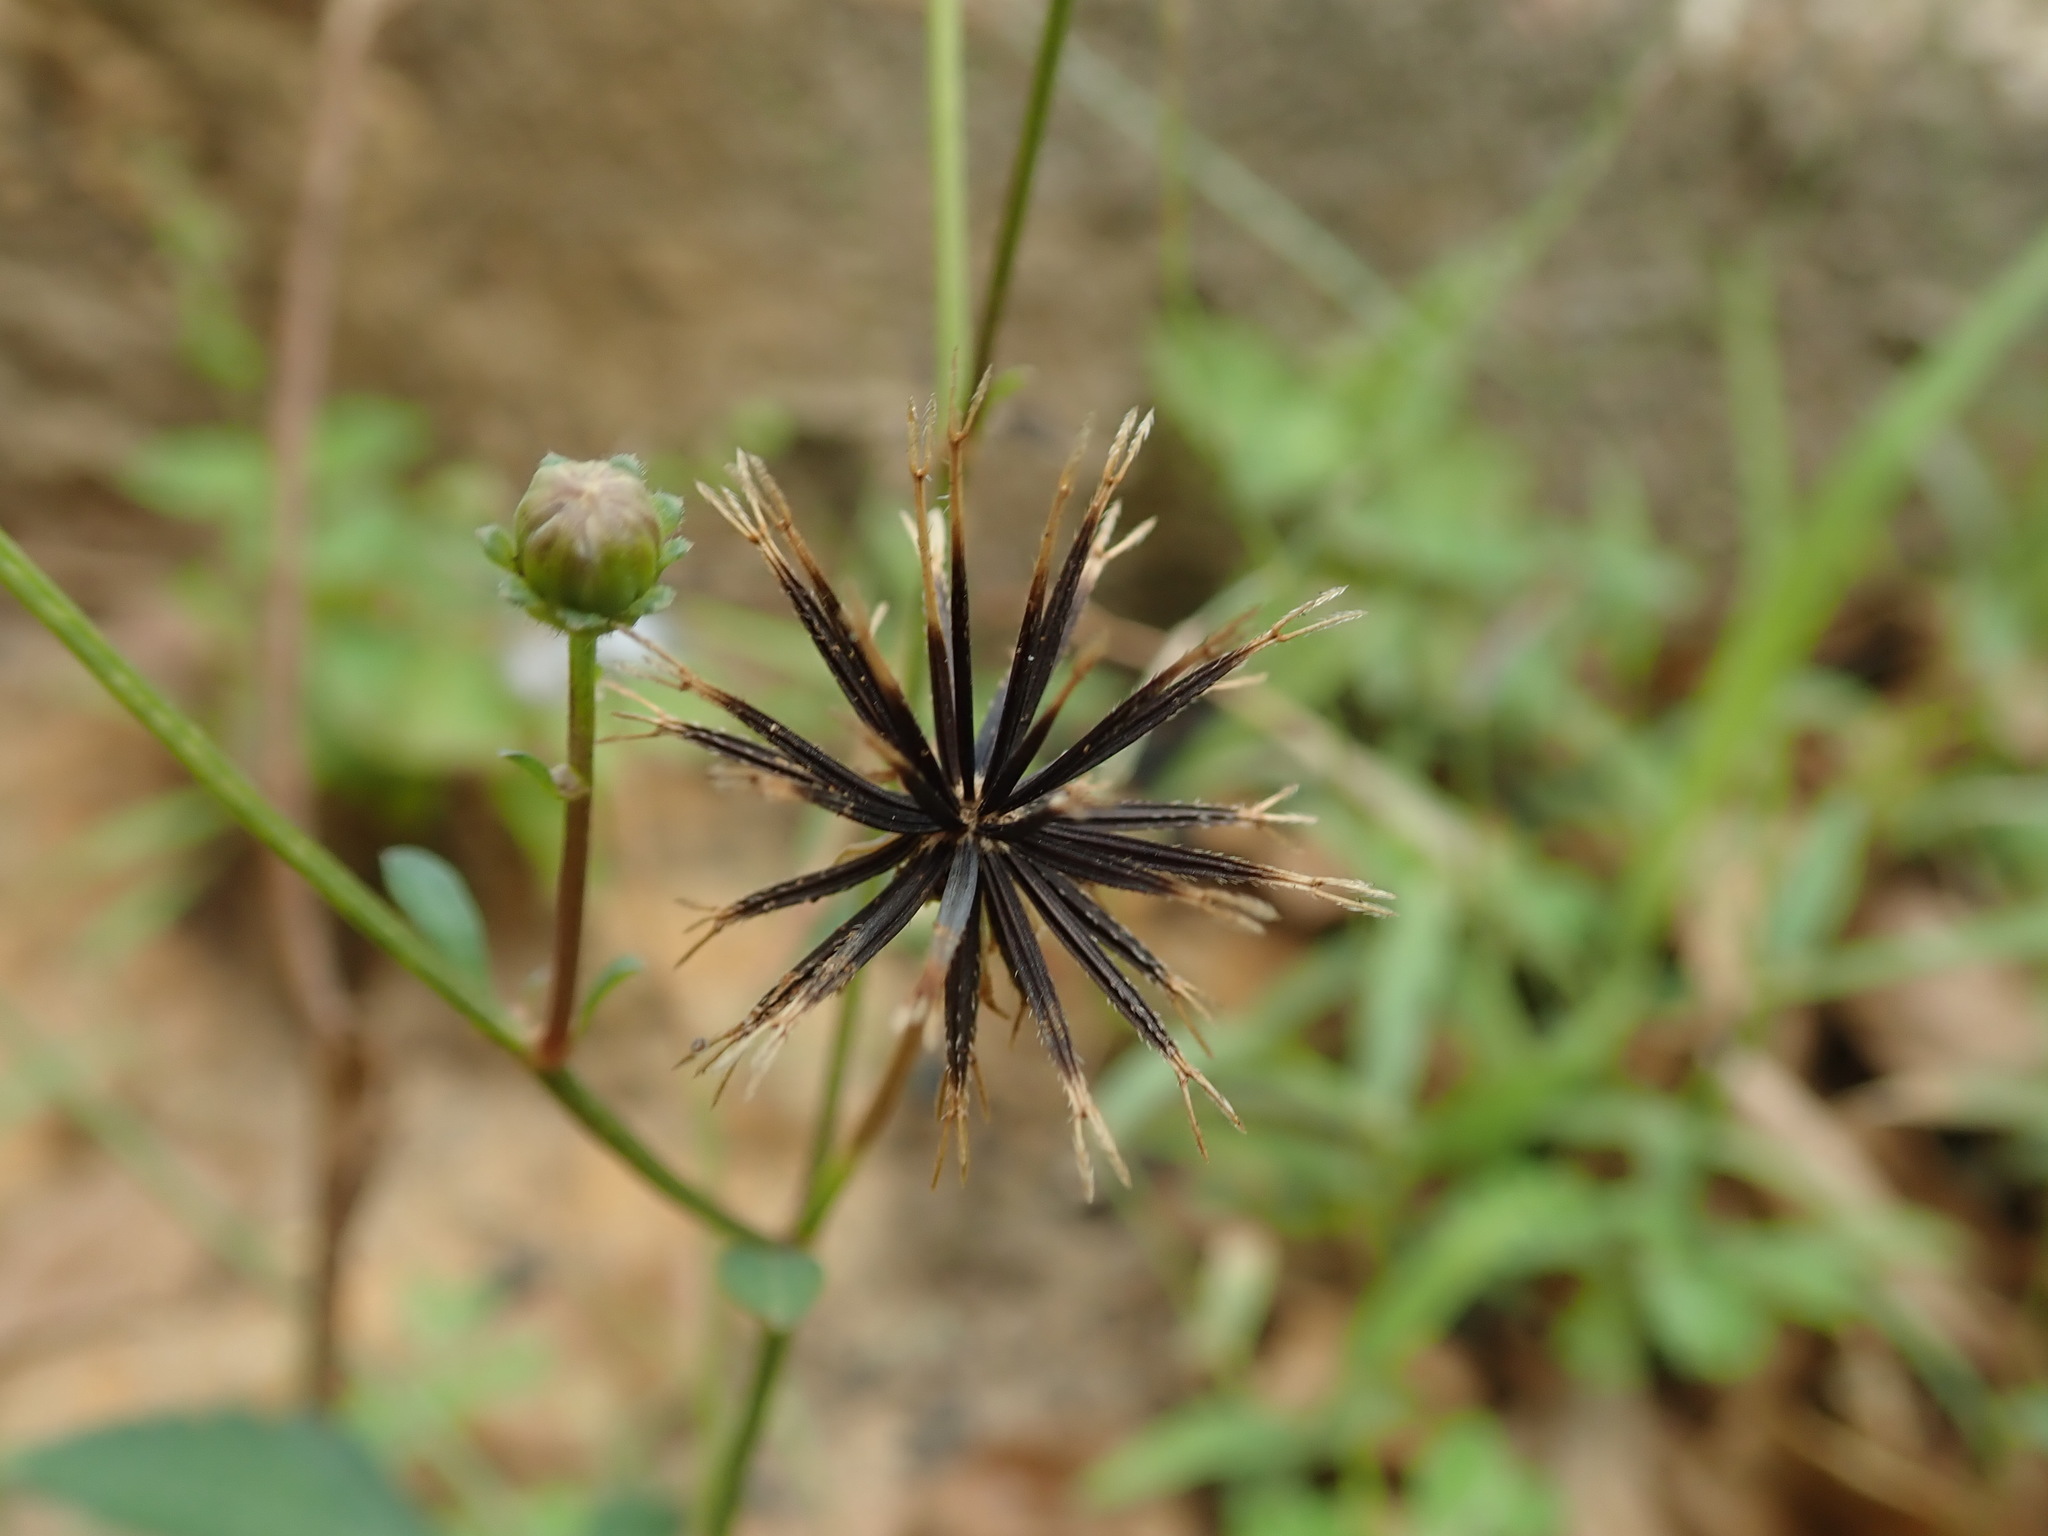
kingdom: Plantae
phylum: Tracheophyta
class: Magnoliopsida
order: Asterales
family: Asteraceae
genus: Bidens
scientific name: Bidens alba
